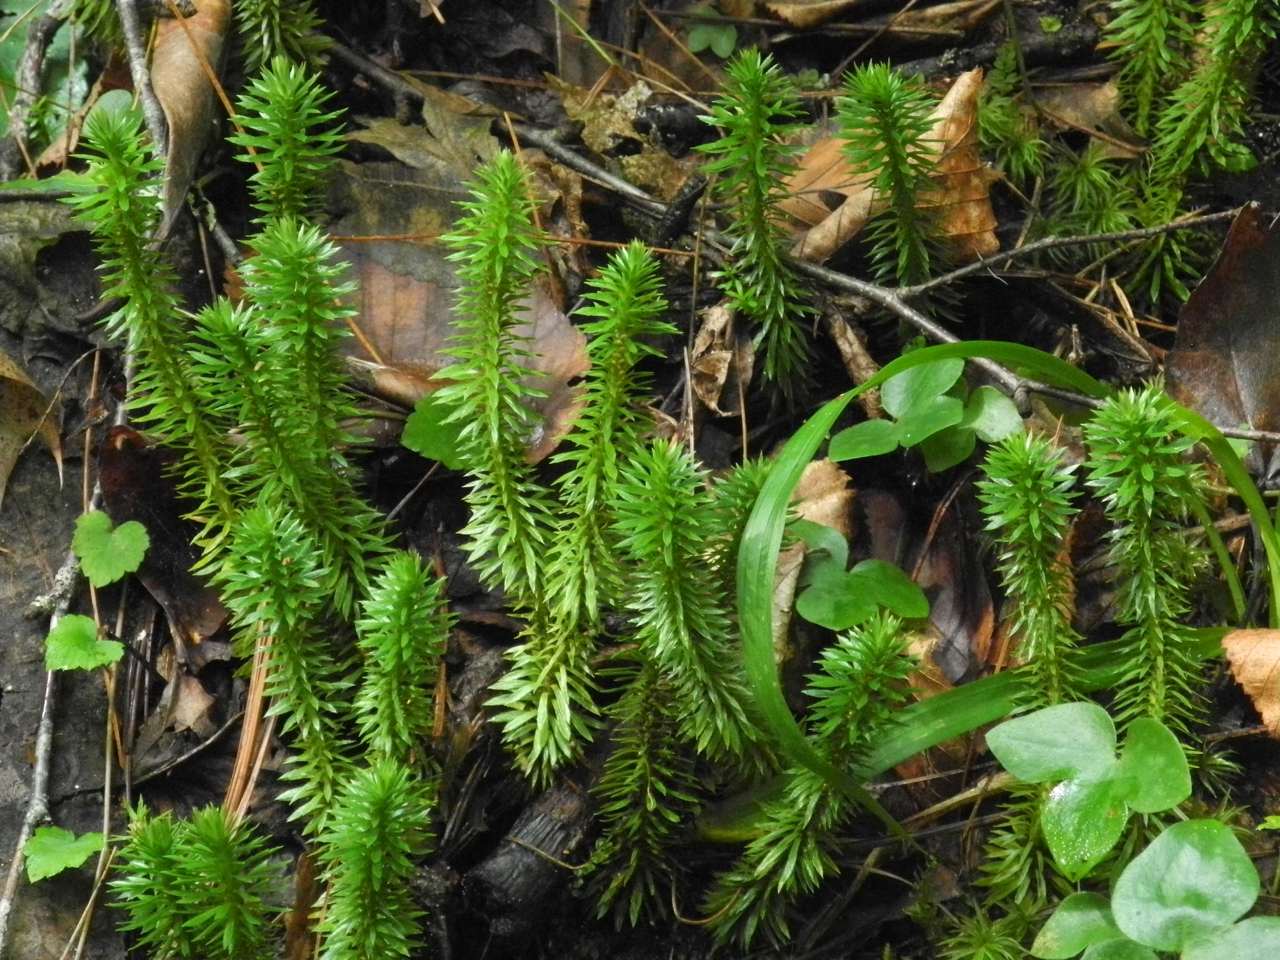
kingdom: Plantae
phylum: Tracheophyta
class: Lycopodiopsida
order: Lycopodiales
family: Lycopodiaceae
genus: Huperzia
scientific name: Huperzia lucidula
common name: Shining clubmoss
